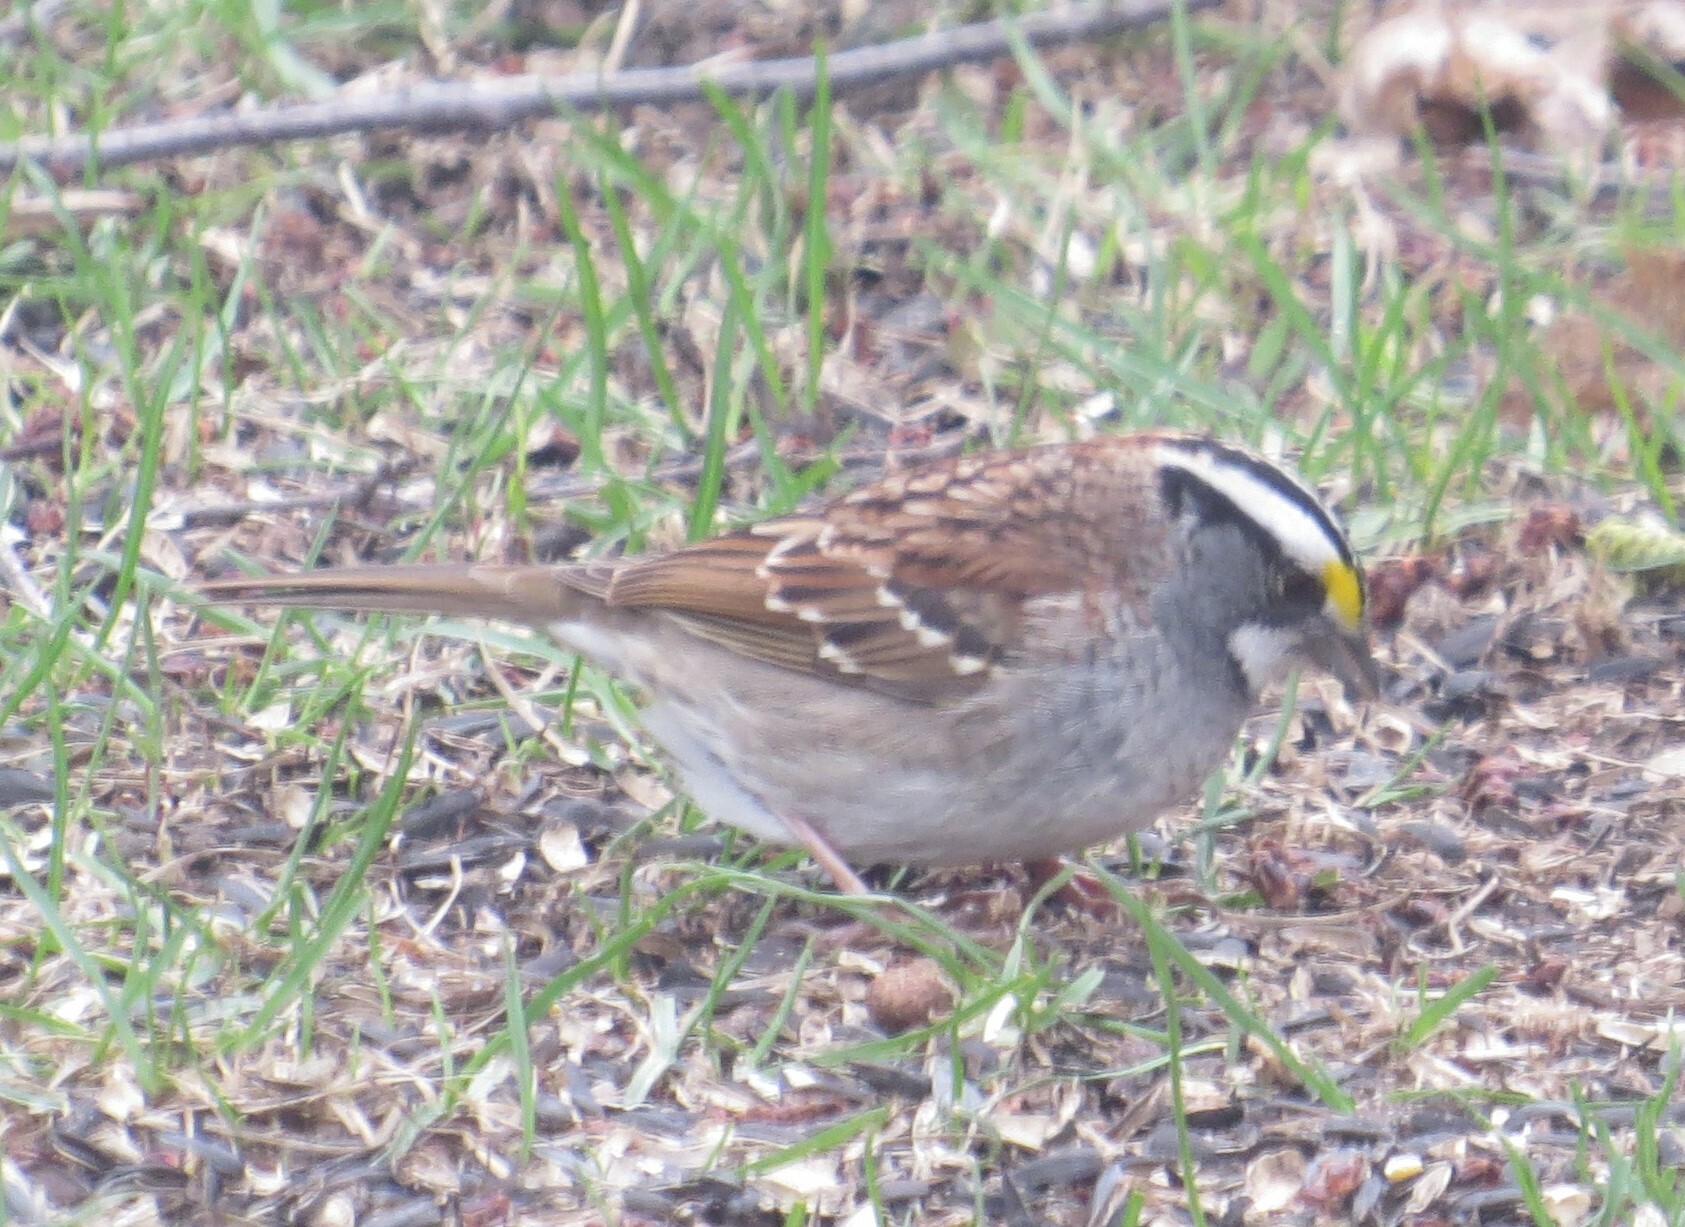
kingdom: Animalia
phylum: Chordata
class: Aves
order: Passeriformes
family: Passerellidae
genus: Zonotrichia
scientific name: Zonotrichia albicollis
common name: White-throated sparrow
